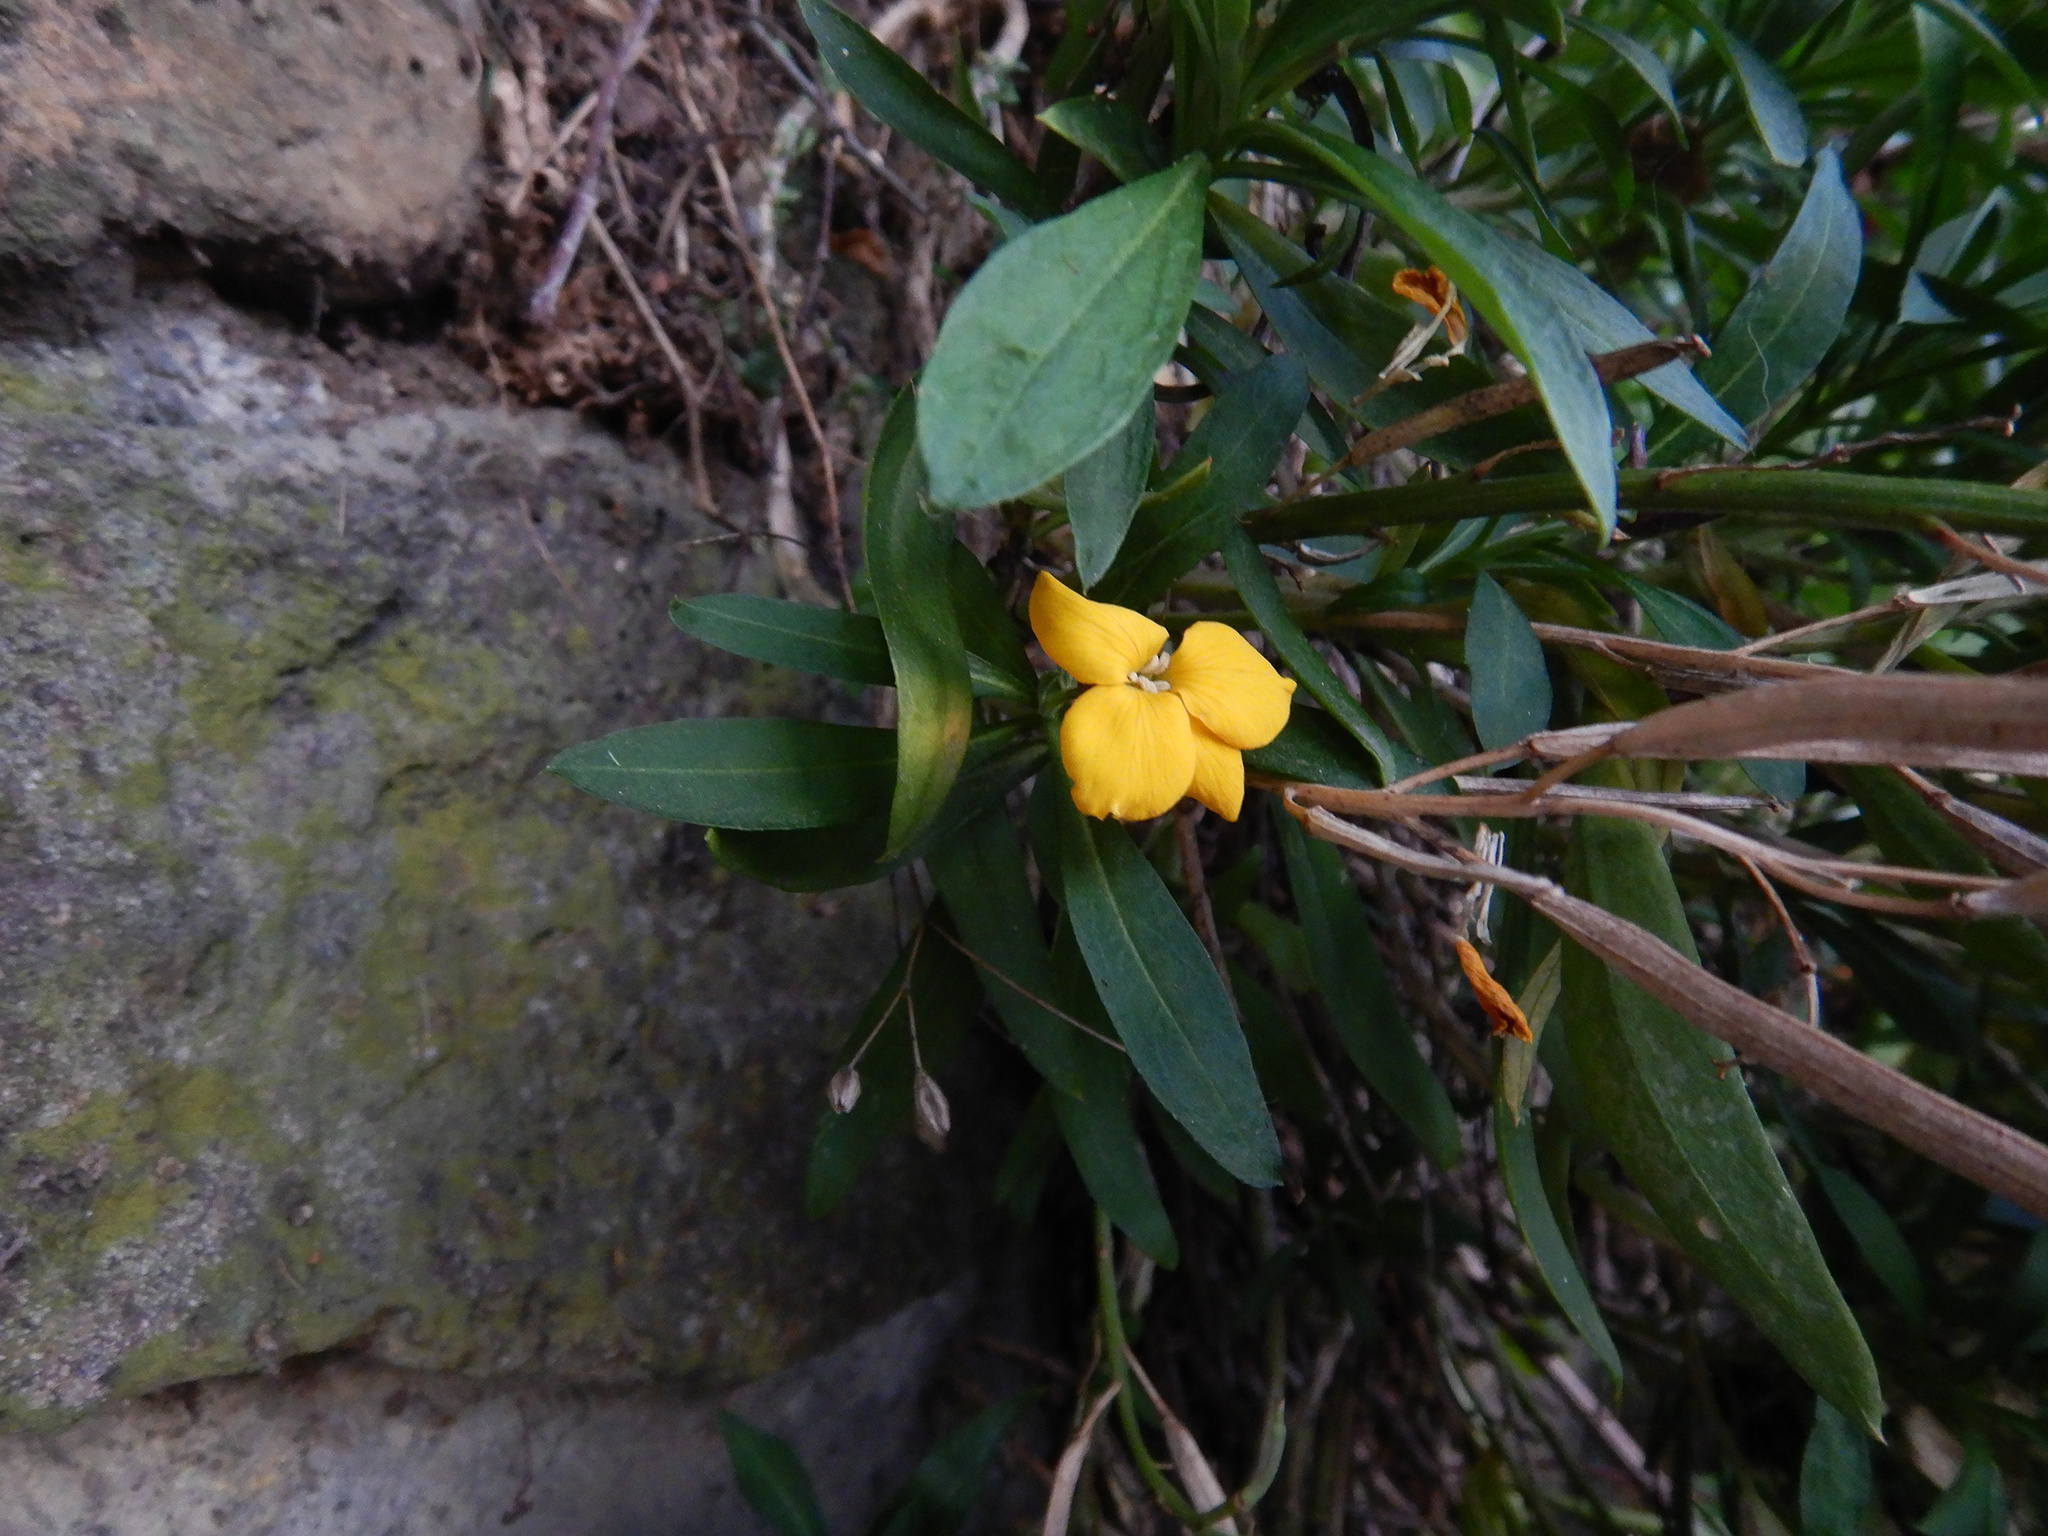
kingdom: Plantae
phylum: Tracheophyta
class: Magnoliopsida
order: Brassicales
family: Brassicaceae
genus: Erysimum
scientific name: Erysimum cheiri
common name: Wallflower
